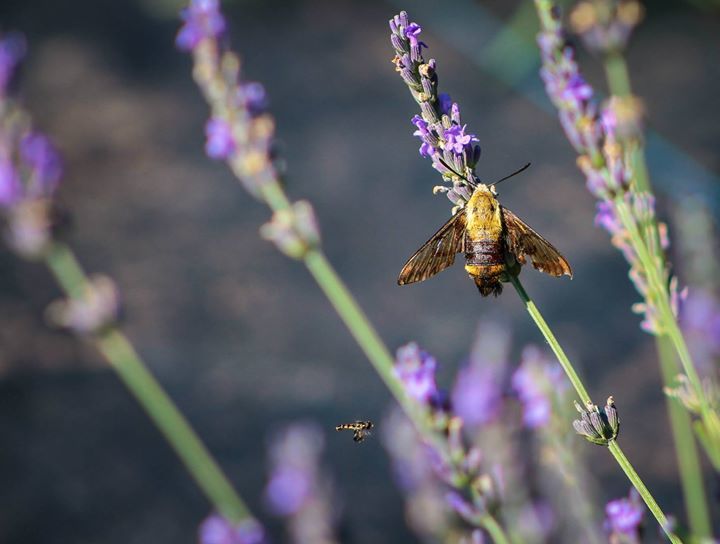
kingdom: Animalia
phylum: Arthropoda
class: Insecta
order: Lepidoptera
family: Sphingidae
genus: Hemaris
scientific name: Hemaris thysbe
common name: Common clear-wing
